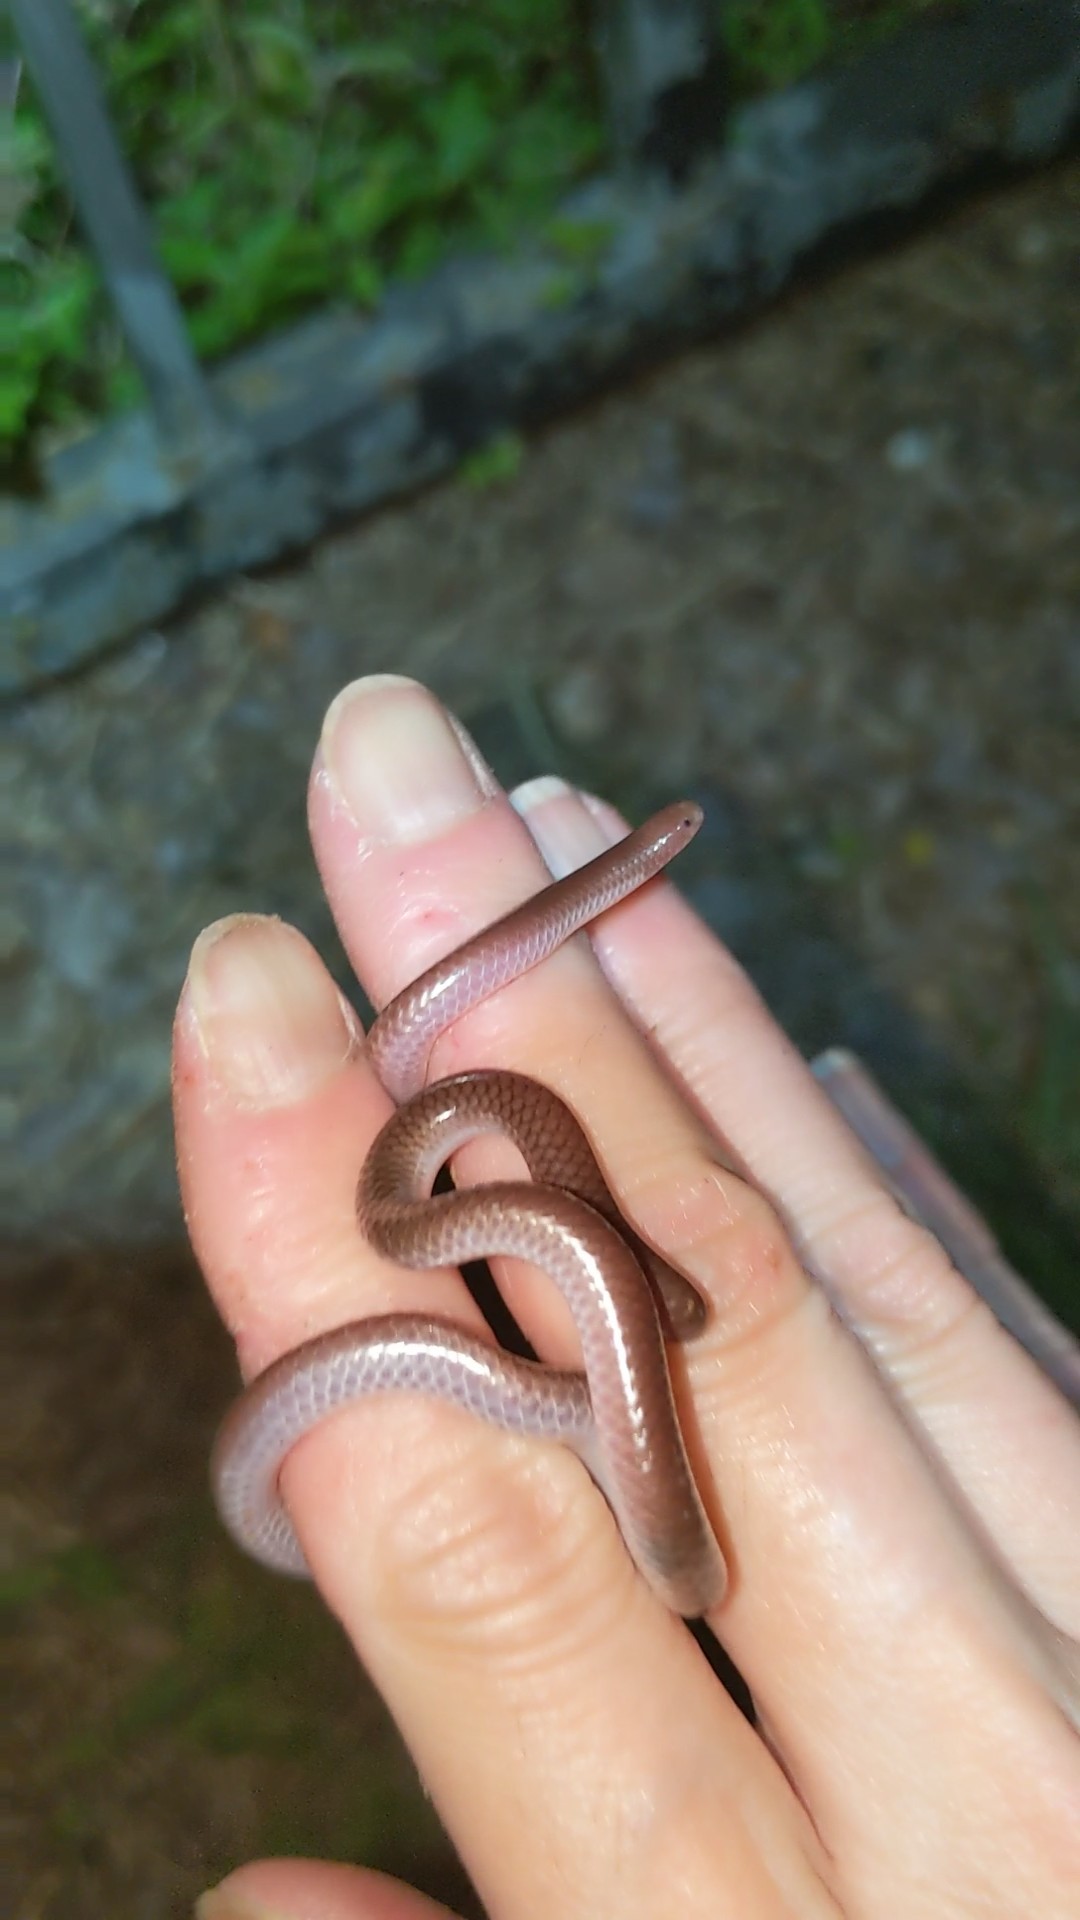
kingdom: Animalia
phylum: Chordata
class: Squamata
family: Leptotyphlopidae
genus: Rena
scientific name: Rena dulcis
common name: Texas blind snake
